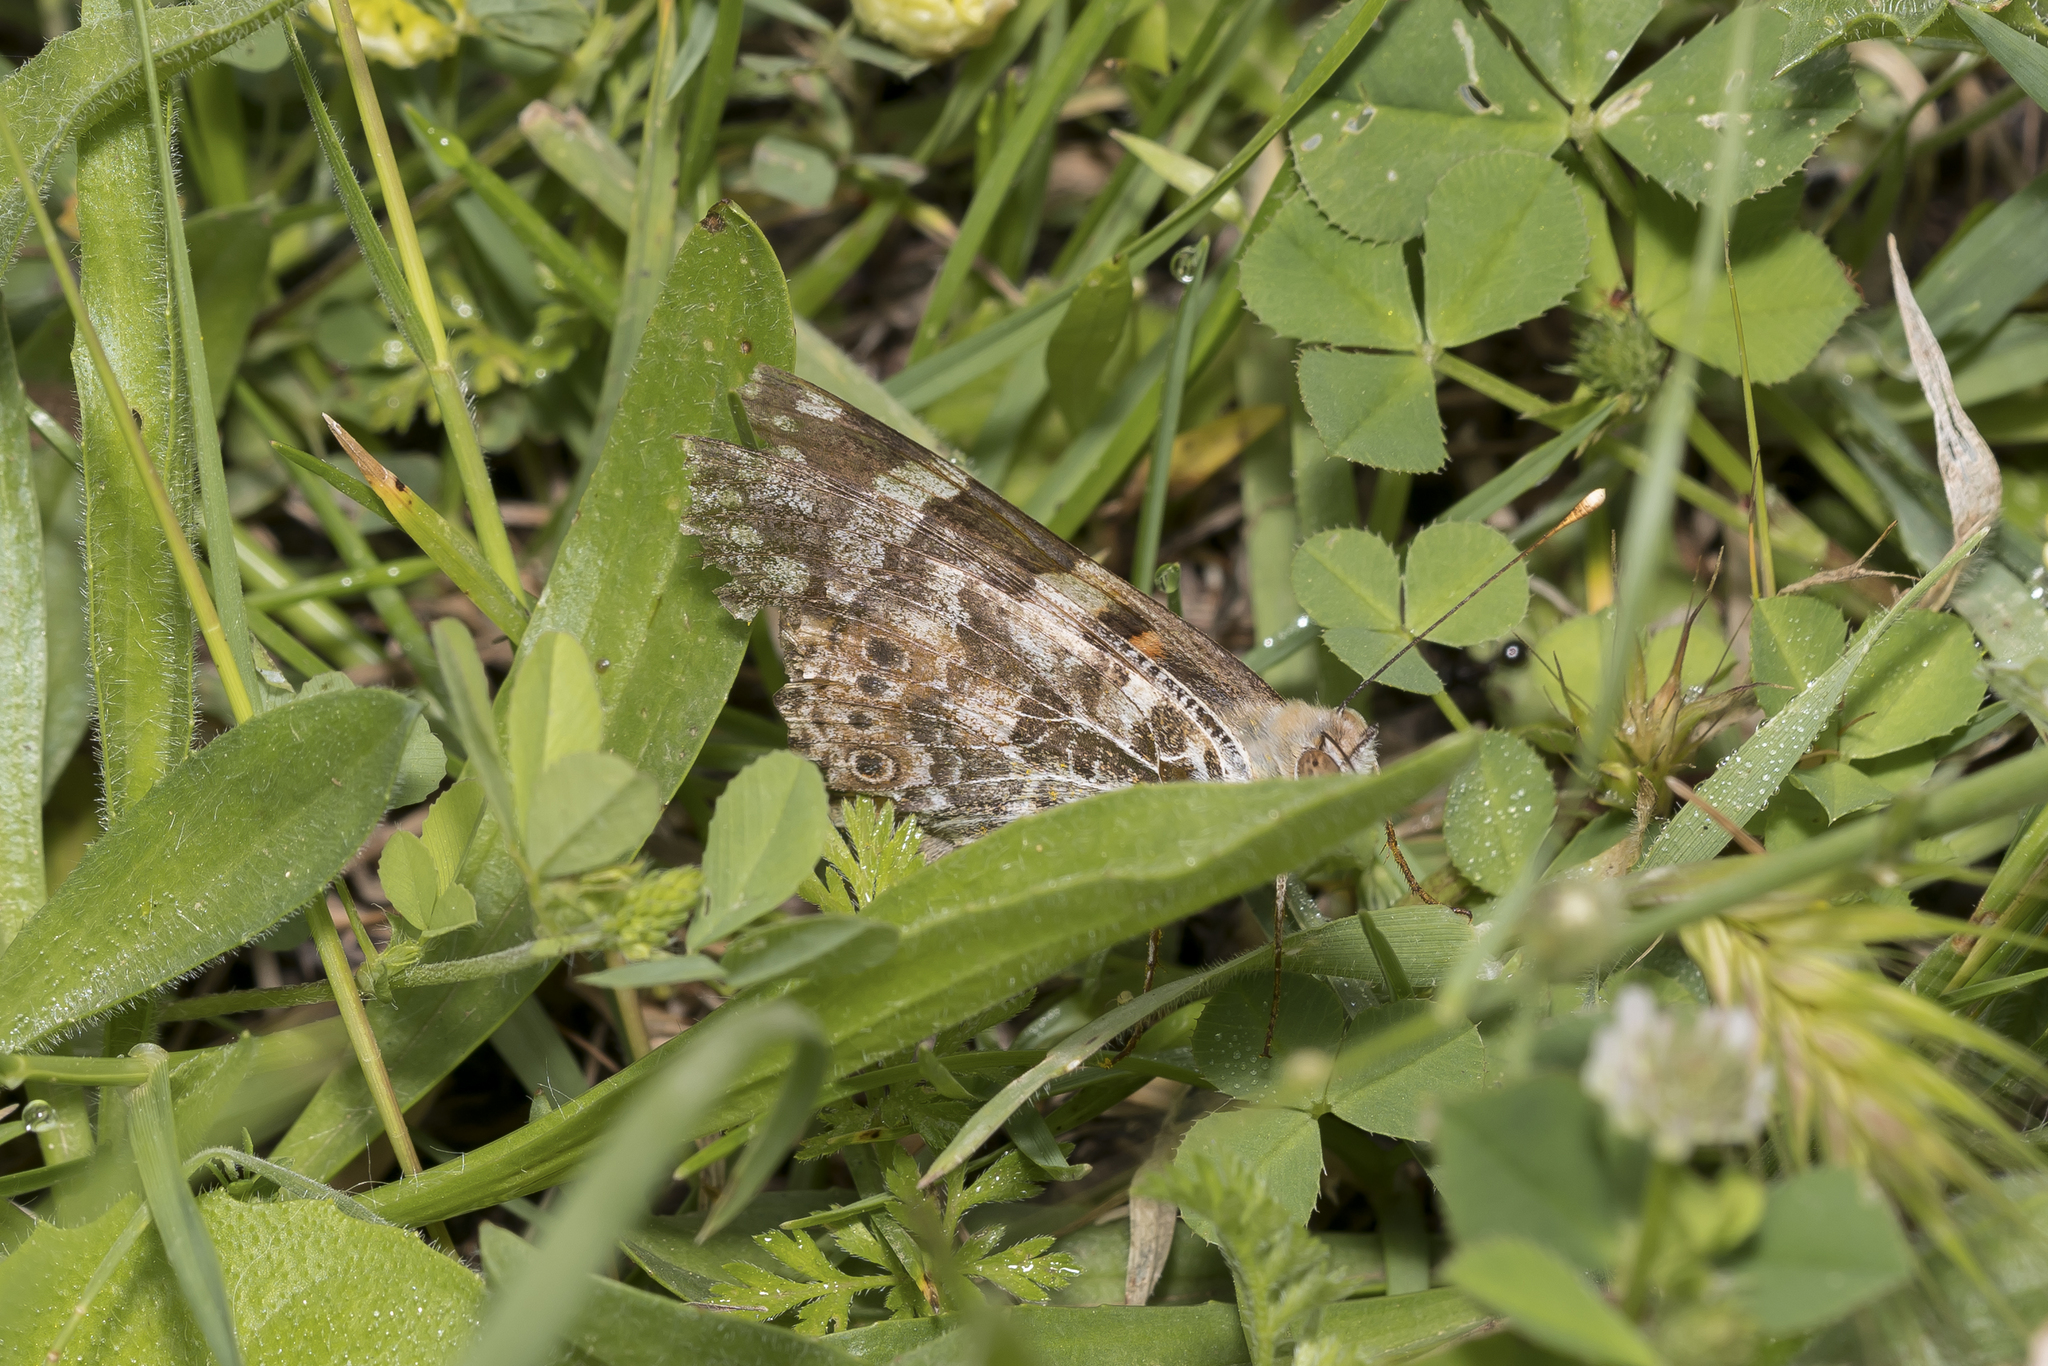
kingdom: Animalia
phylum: Arthropoda
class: Insecta
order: Lepidoptera
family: Nymphalidae
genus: Vanessa
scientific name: Vanessa cardui
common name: Painted lady
